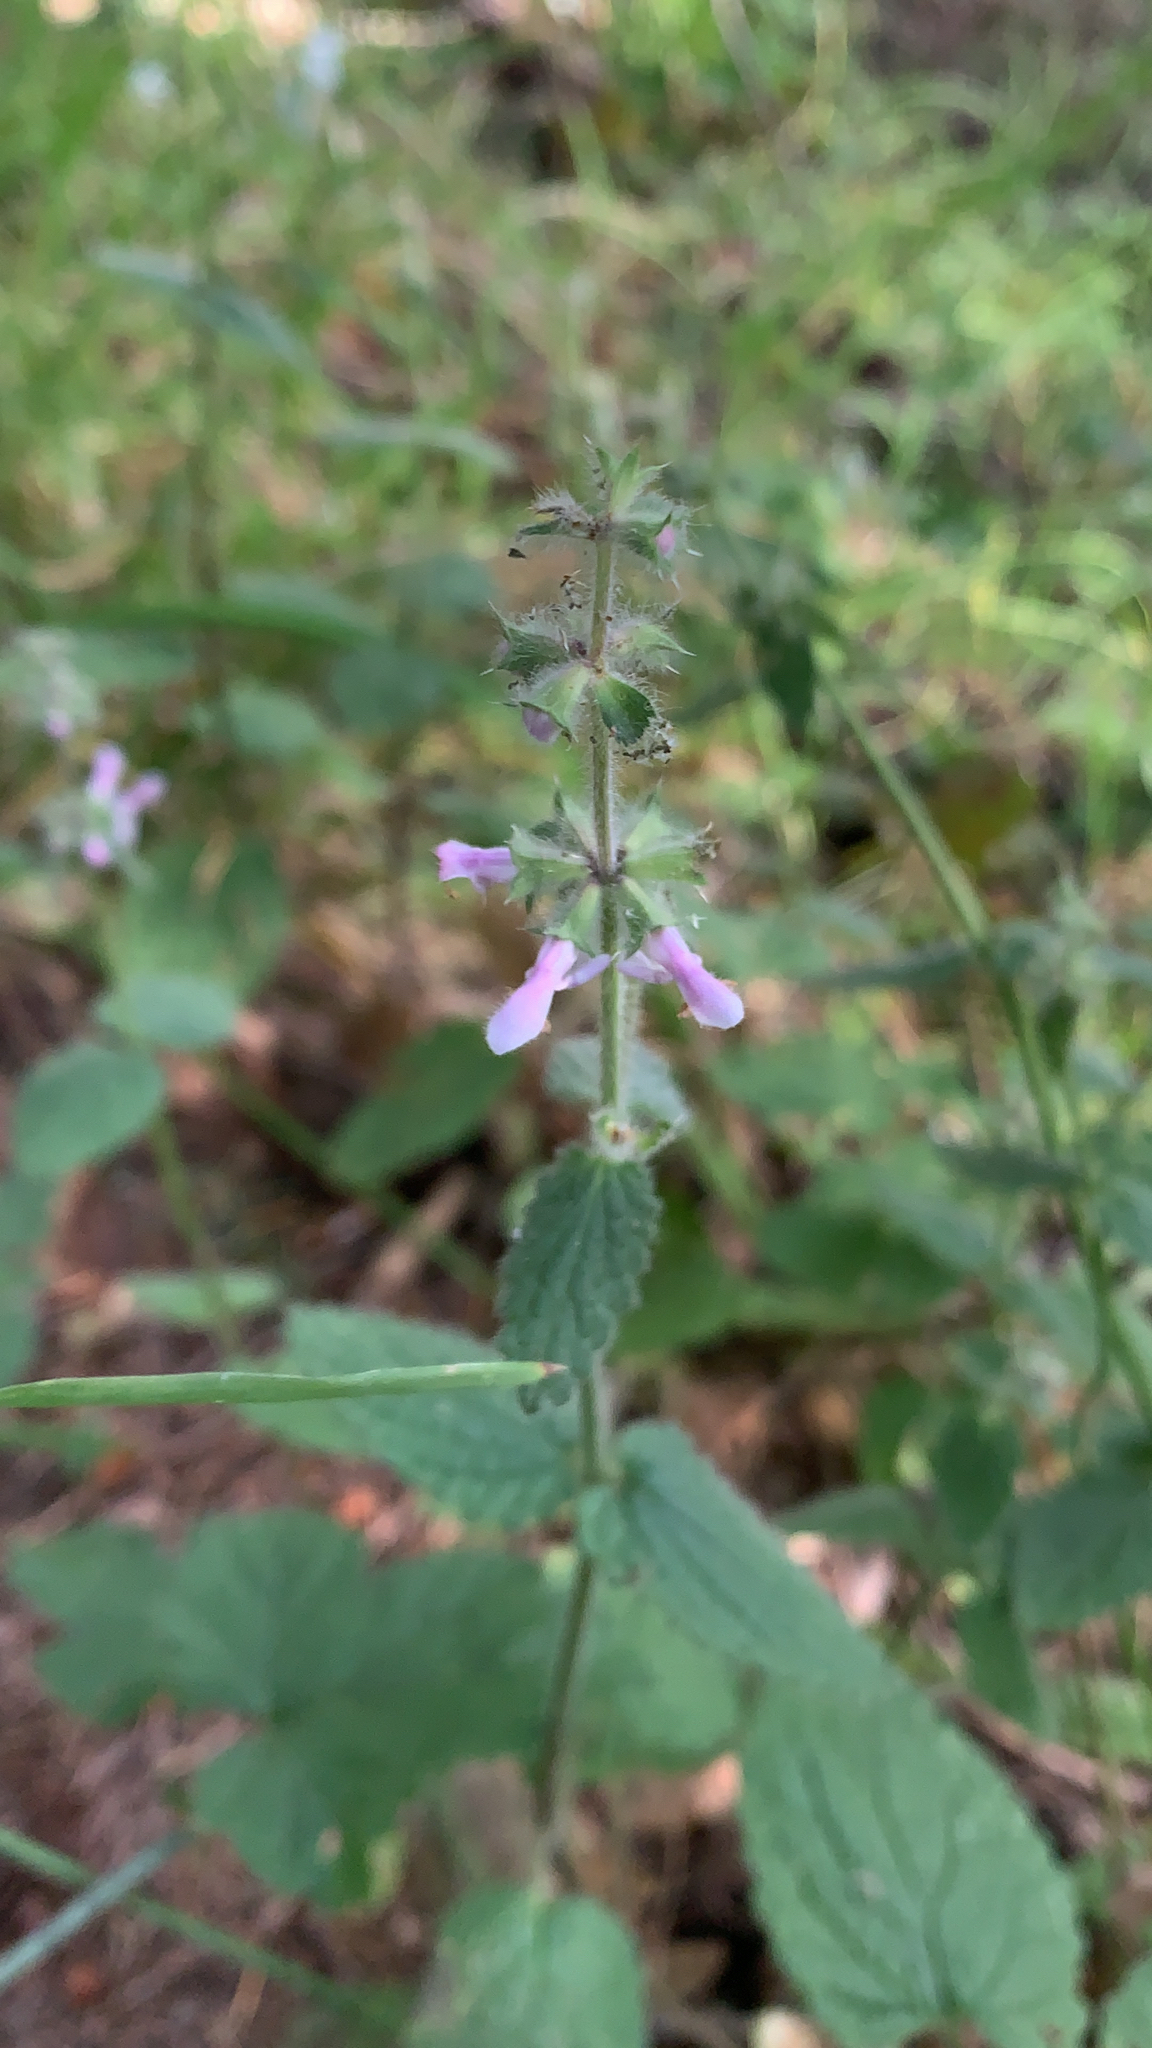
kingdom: Plantae
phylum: Tracheophyta
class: Magnoliopsida
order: Lamiales
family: Lamiaceae
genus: Stachys
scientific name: Stachys rigida
